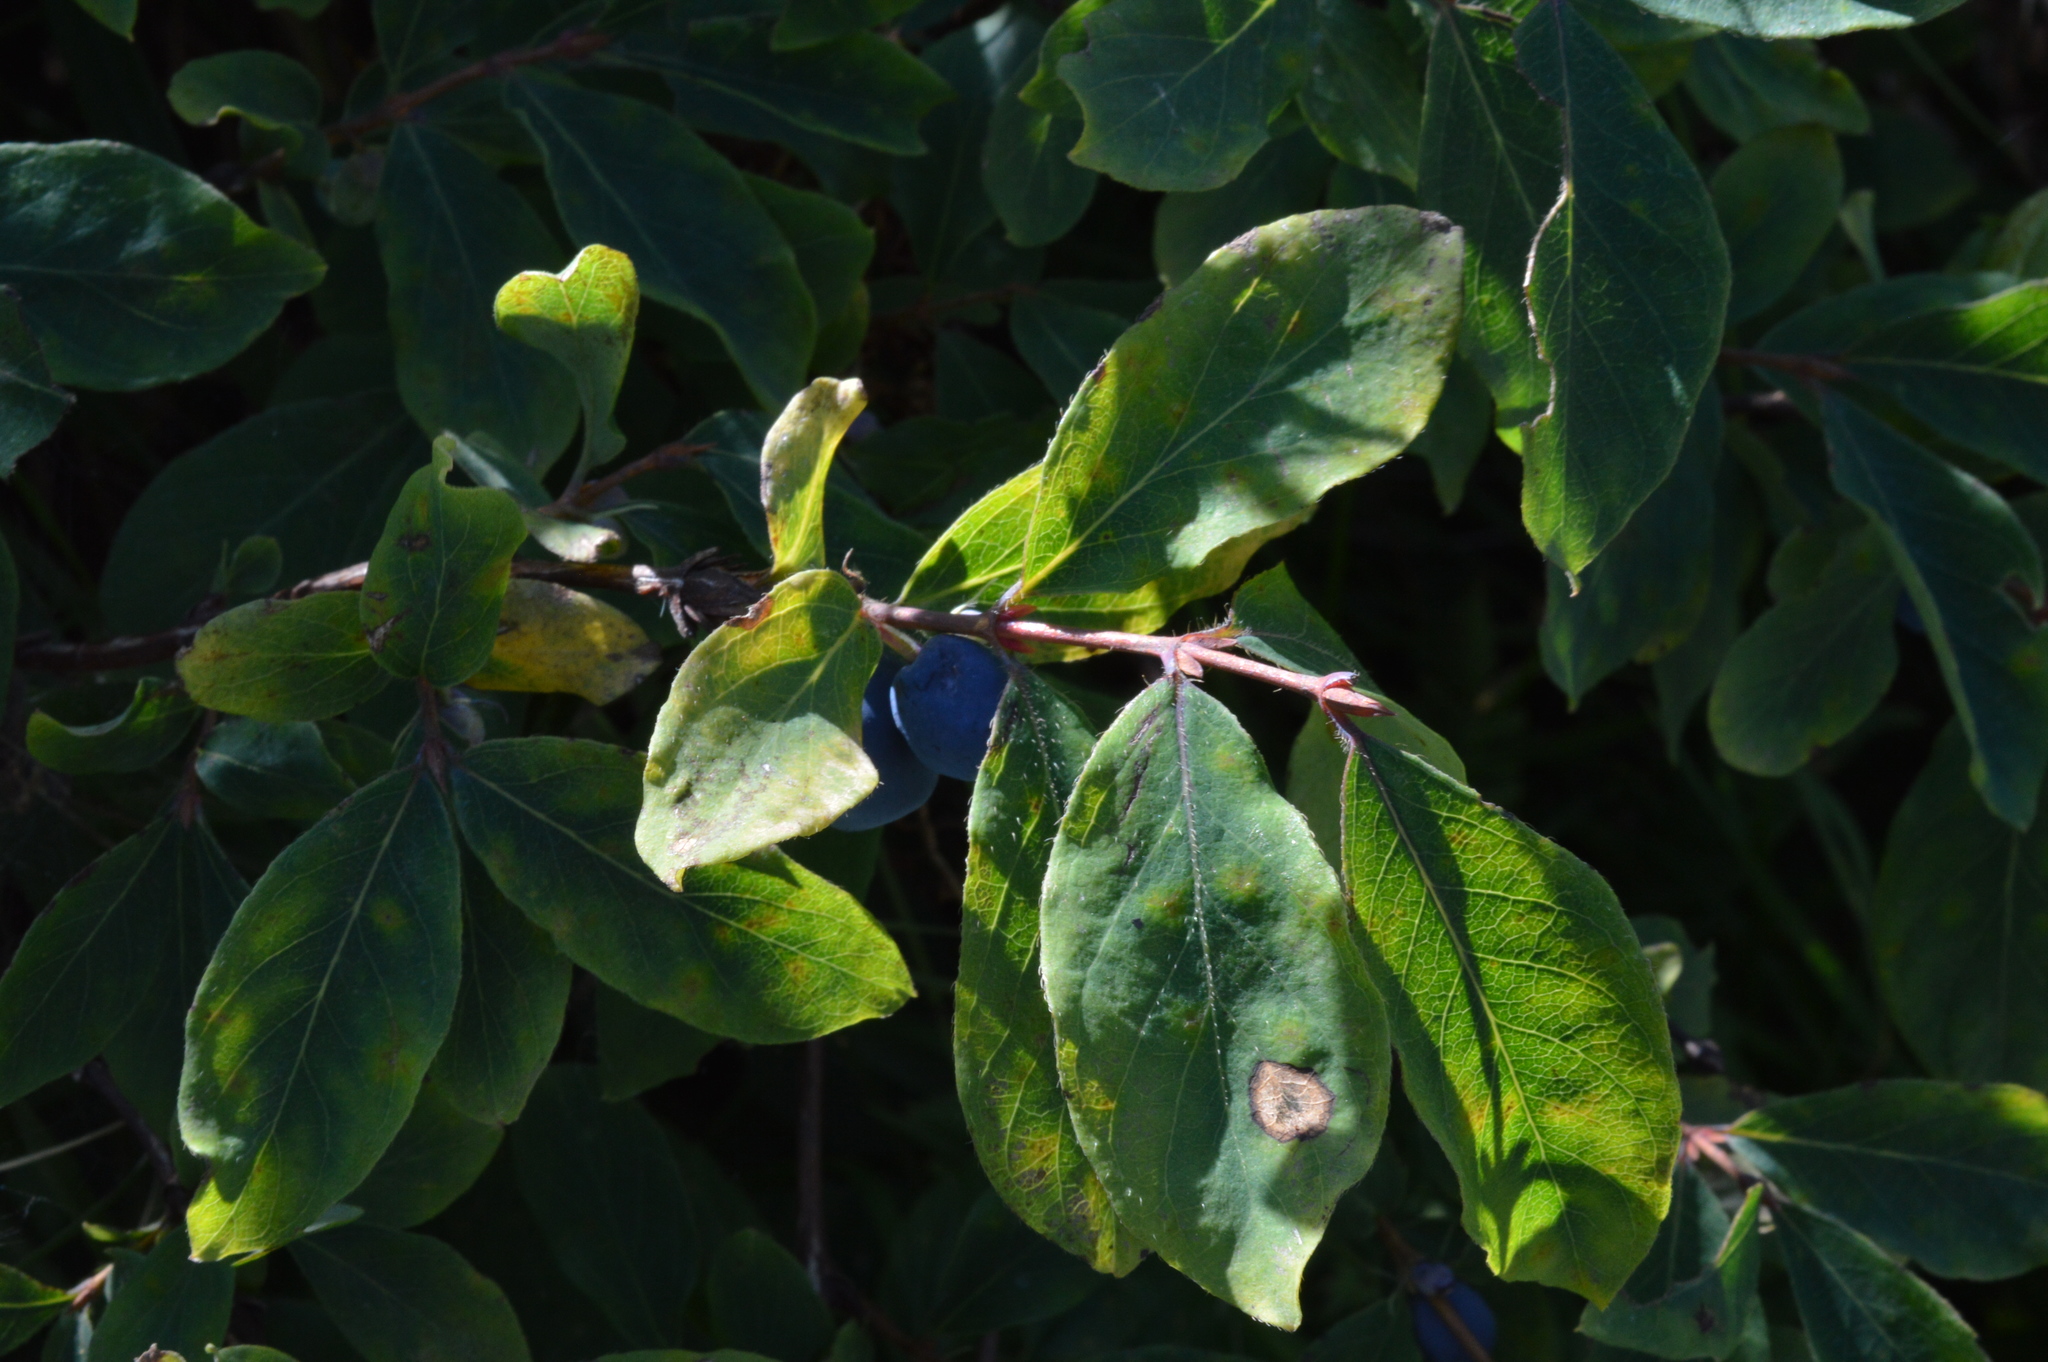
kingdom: Plantae
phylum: Tracheophyta
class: Magnoliopsida
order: Dipsacales
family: Caprifoliaceae
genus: Lonicera
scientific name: Lonicera caerulea
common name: Blue honeysuckle
